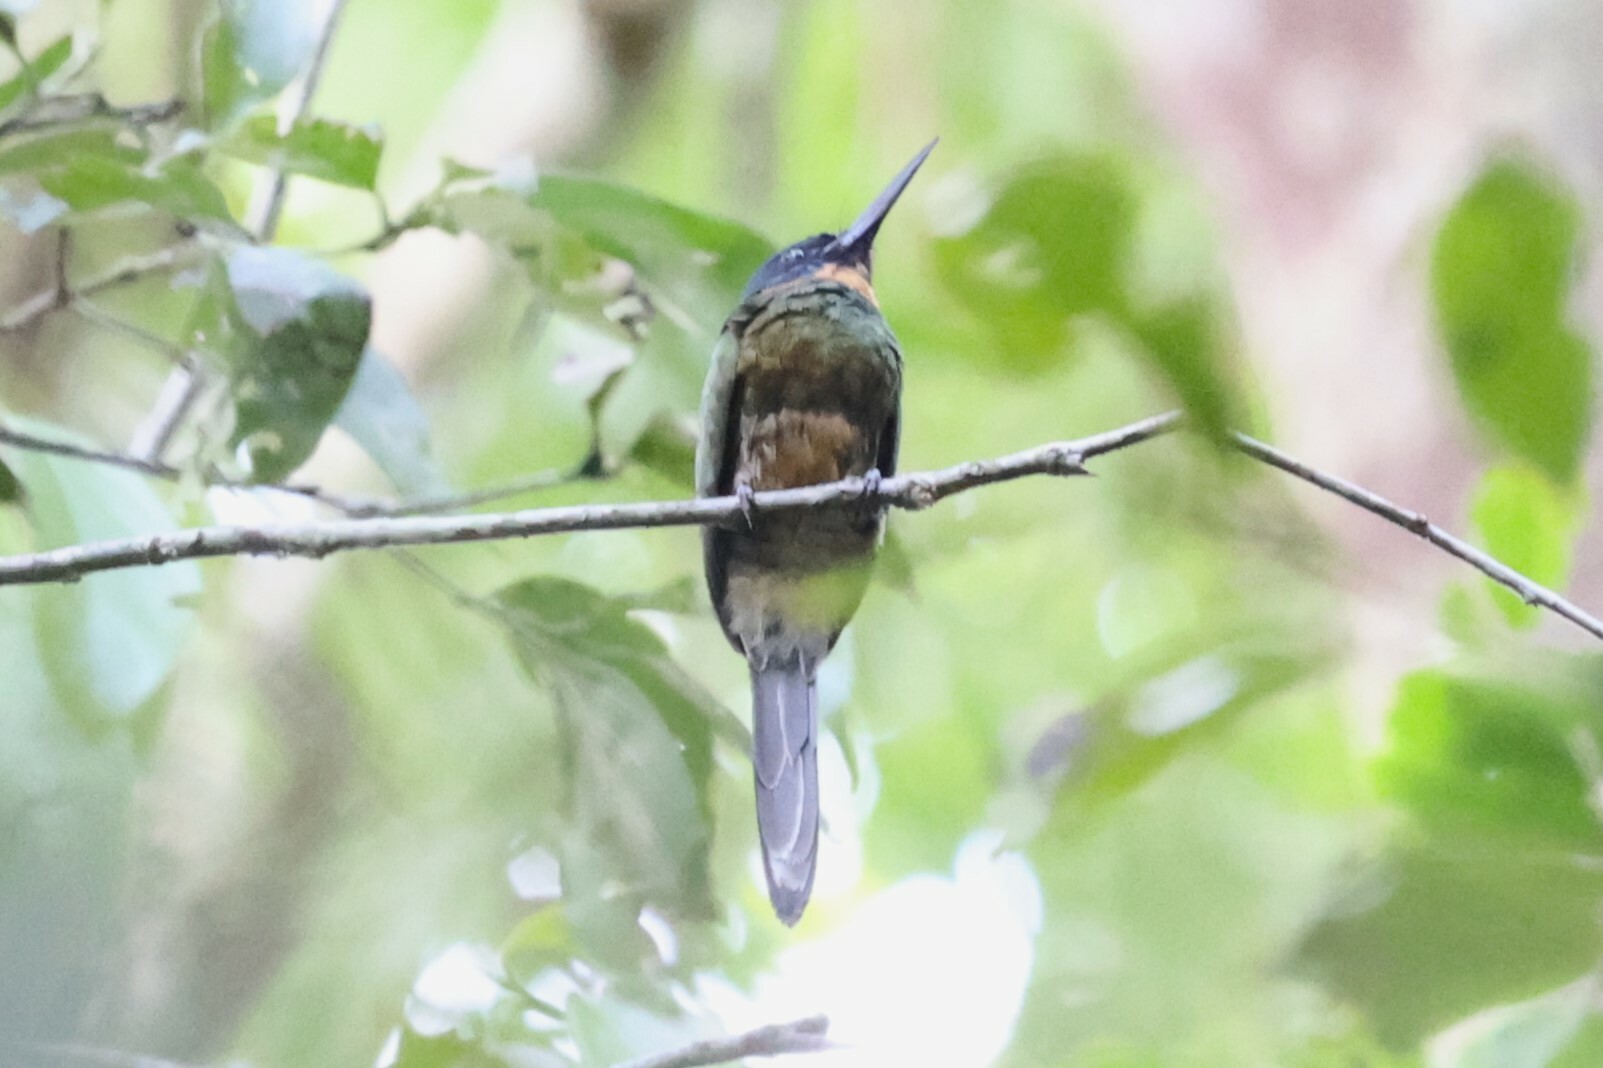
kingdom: Animalia
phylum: Chordata
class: Aves
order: Piciformes
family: Galbulidae
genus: Galbula
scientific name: Galbula chalcothorax
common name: Purplish jacamar
